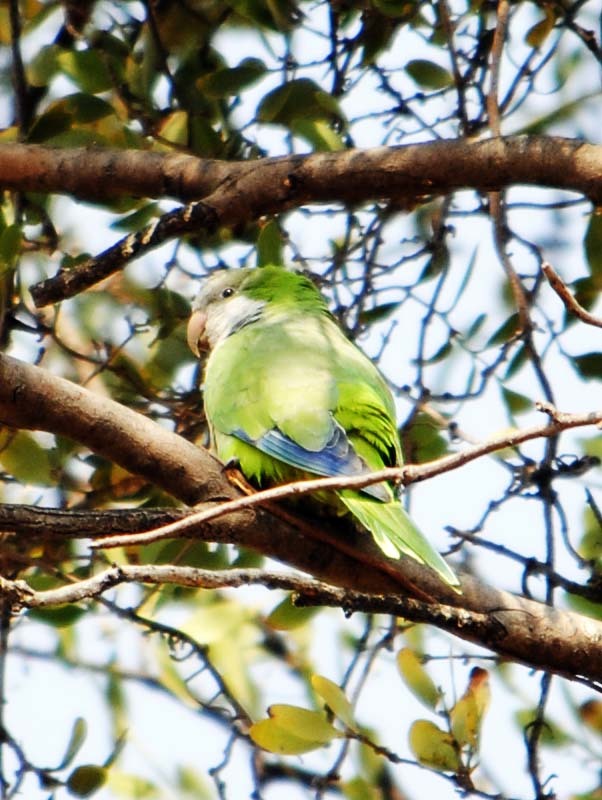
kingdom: Animalia
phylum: Chordata
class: Aves
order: Psittaciformes
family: Psittacidae
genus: Myiopsitta
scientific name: Myiopsitta monachus
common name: Monk parakeet
